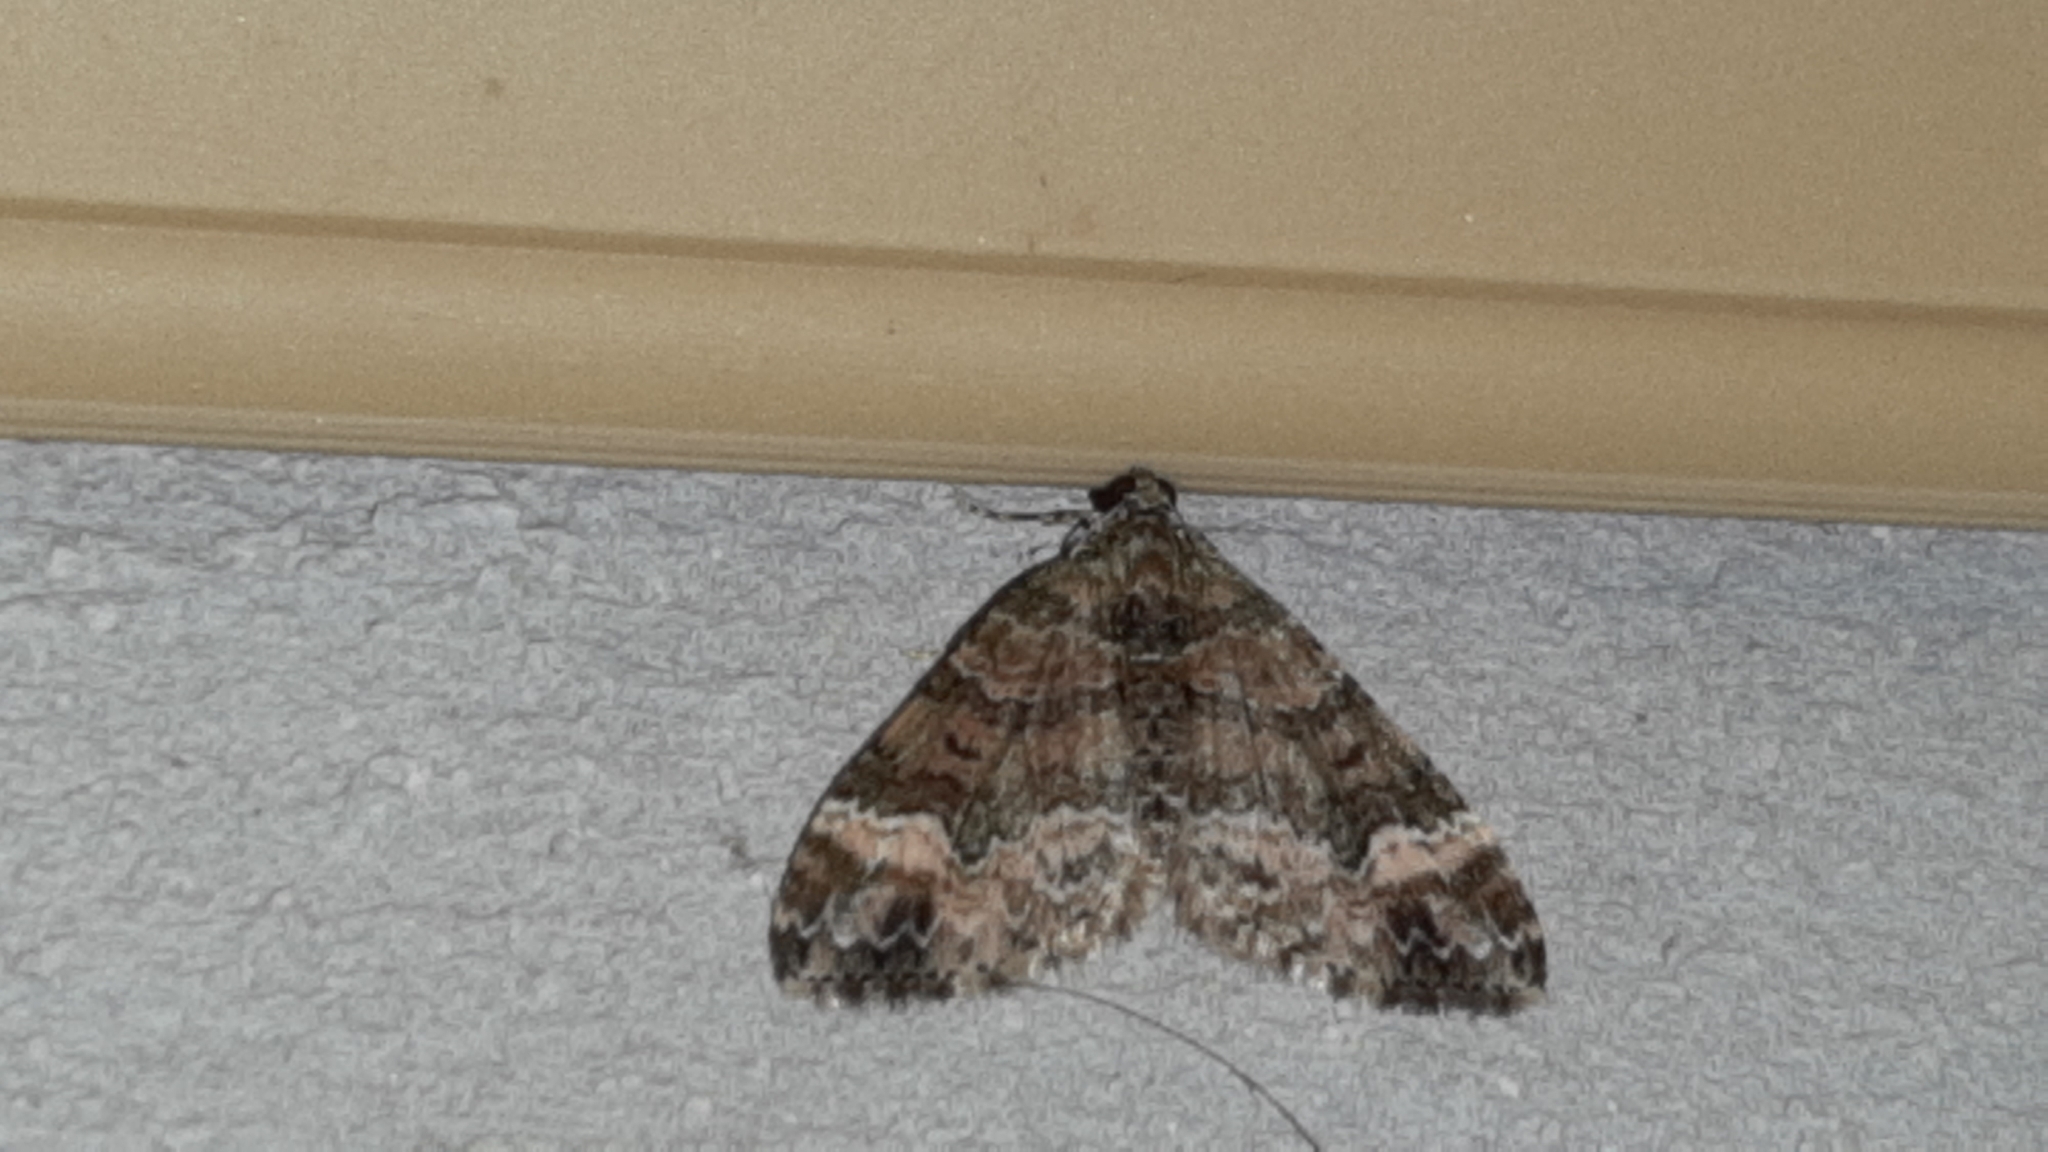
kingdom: Animalia
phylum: Arthropoda
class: Insecta
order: Lepidoptera
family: Geometridae
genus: Euphyia
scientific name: Euphyia fartaria
